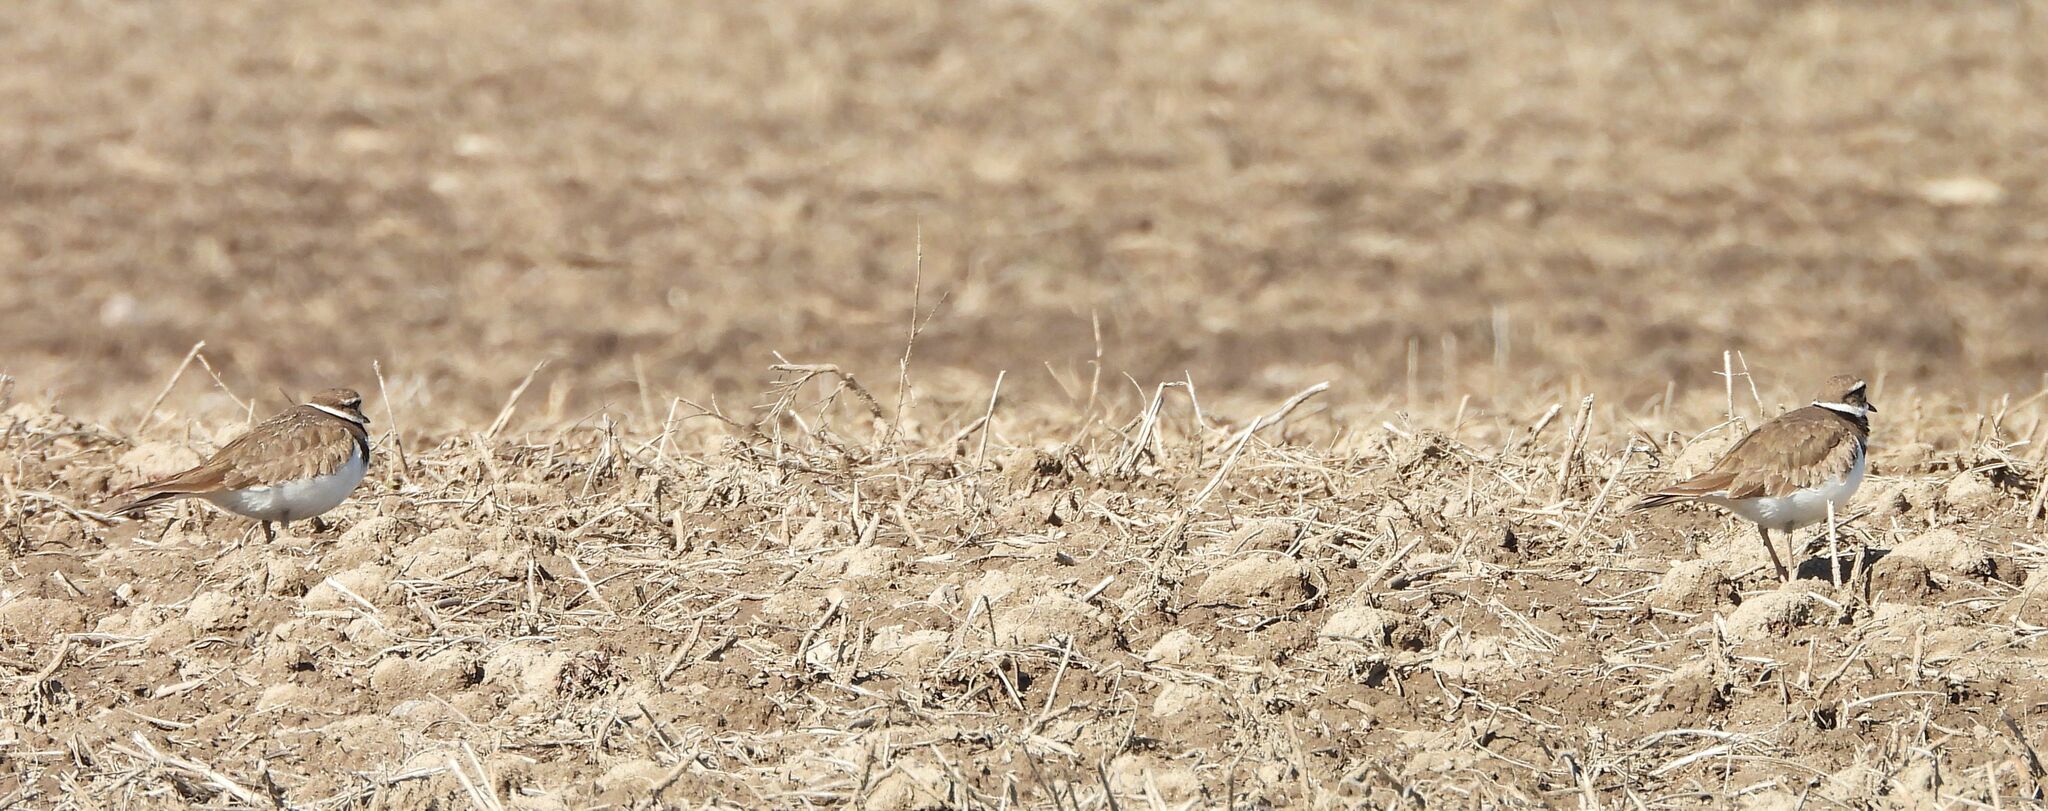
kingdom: Animalia
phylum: Chordata
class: Aves
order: Charadriiformes
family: Charadriidae
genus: Charadrius
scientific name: Charadrius vociferus
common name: Killdeer
